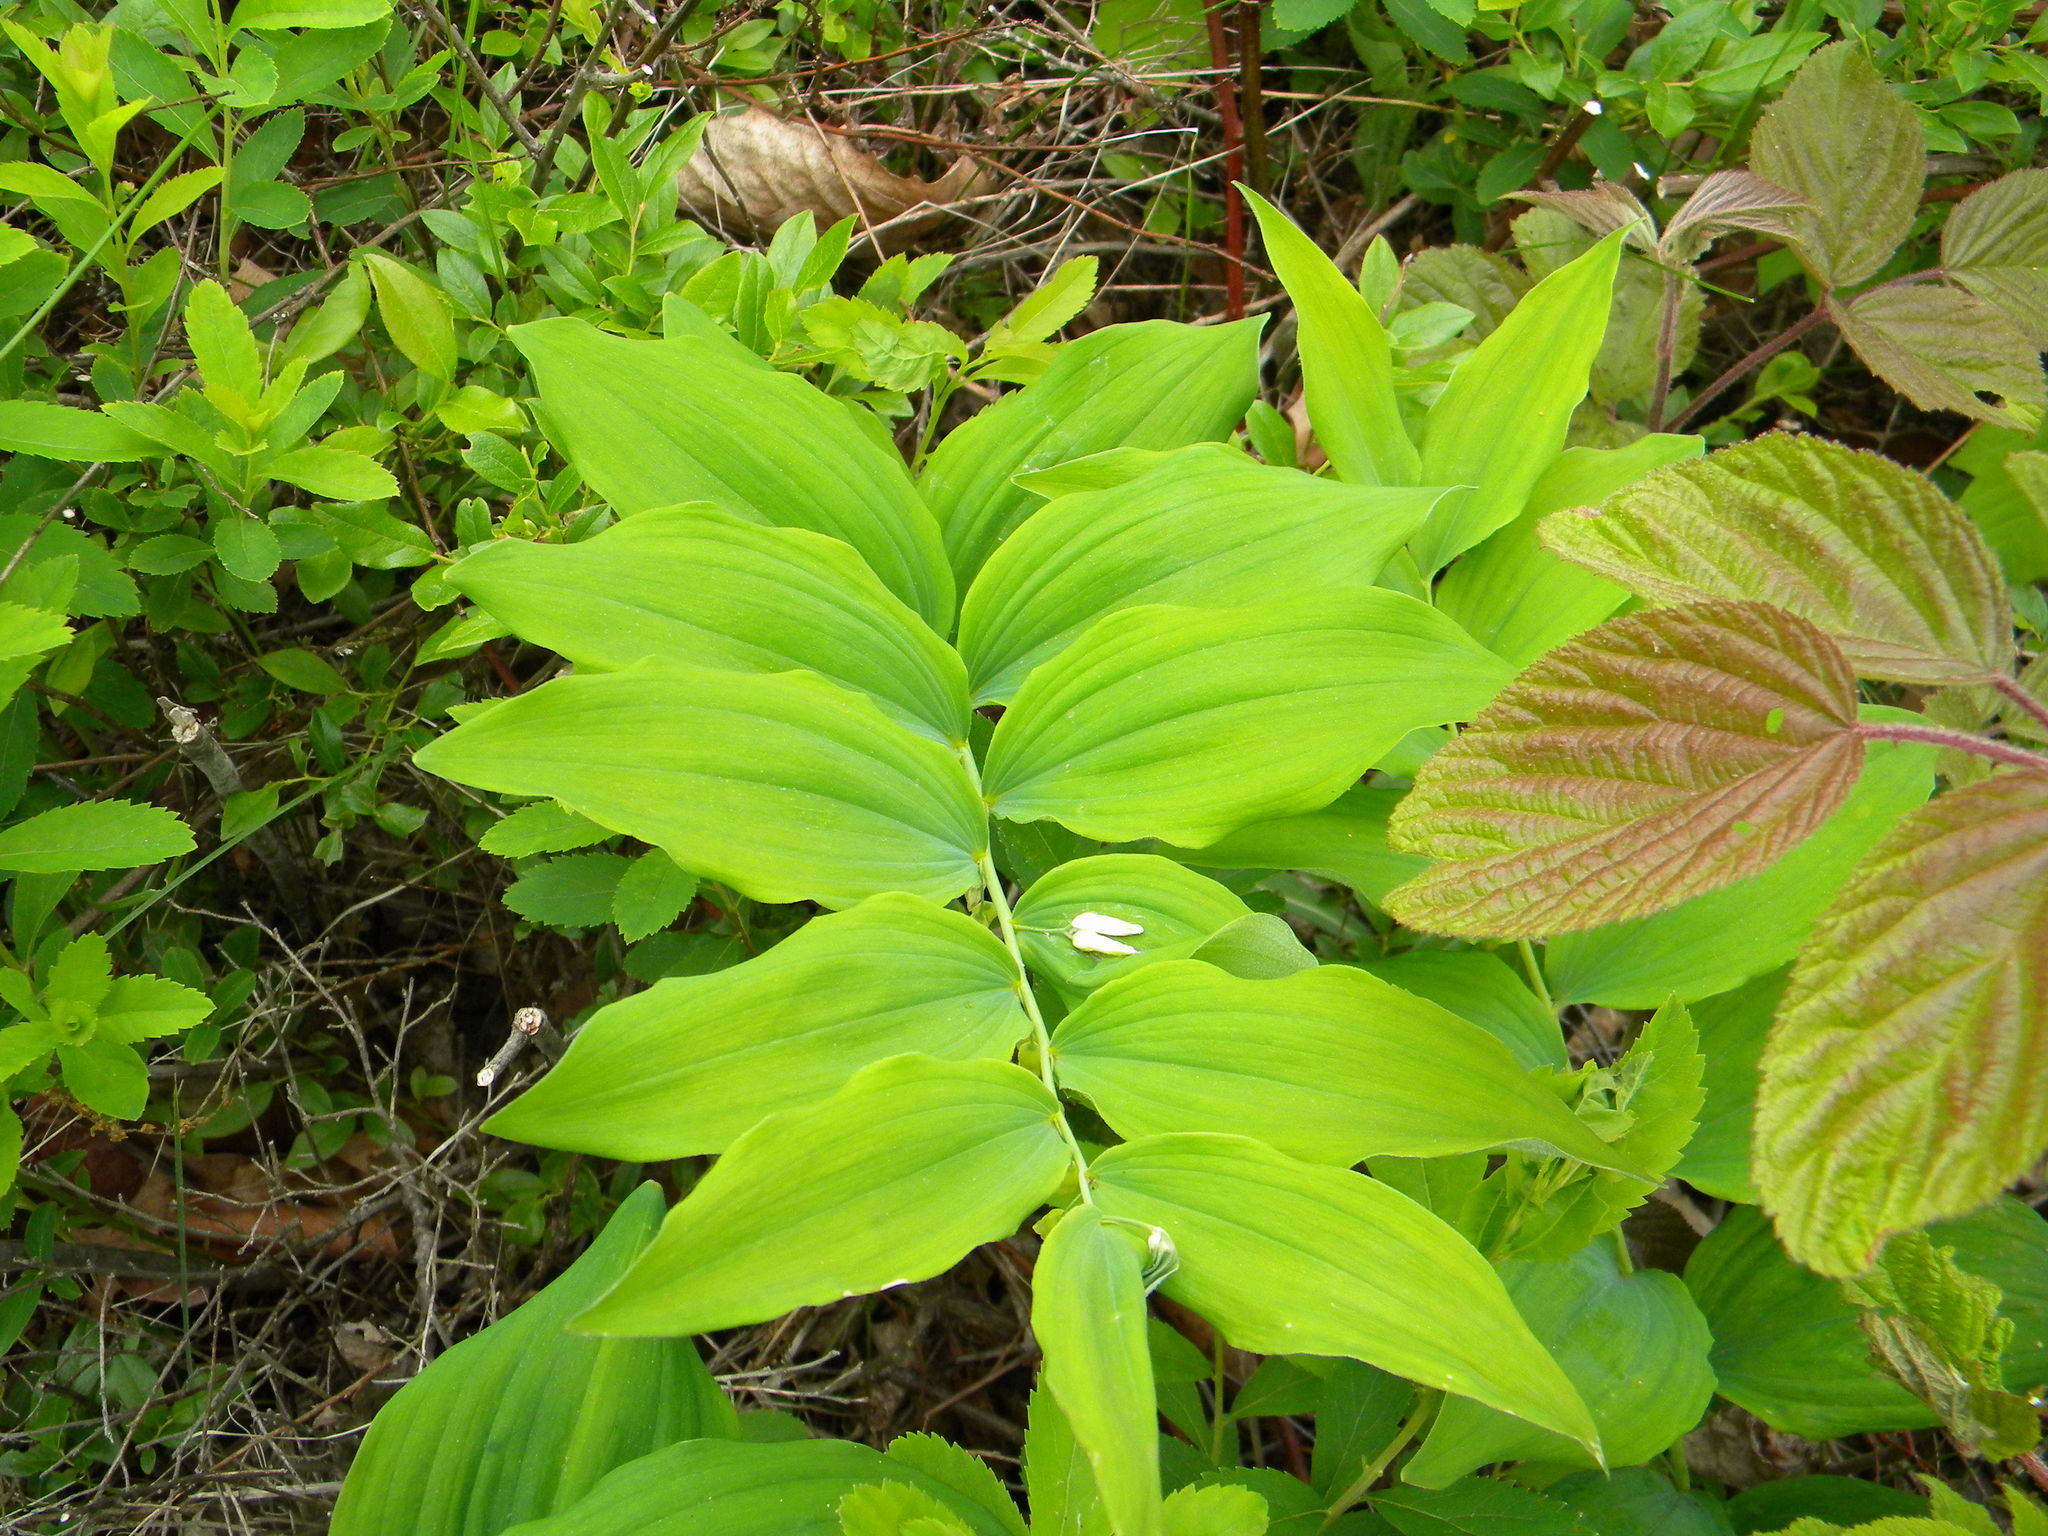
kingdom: Plantae
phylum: Tracheophyta
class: Liliopsida
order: Asparagales
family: Asparagaceae
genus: Polygonatum
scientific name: Polygonatum pubescens
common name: Downy solomon's seal
